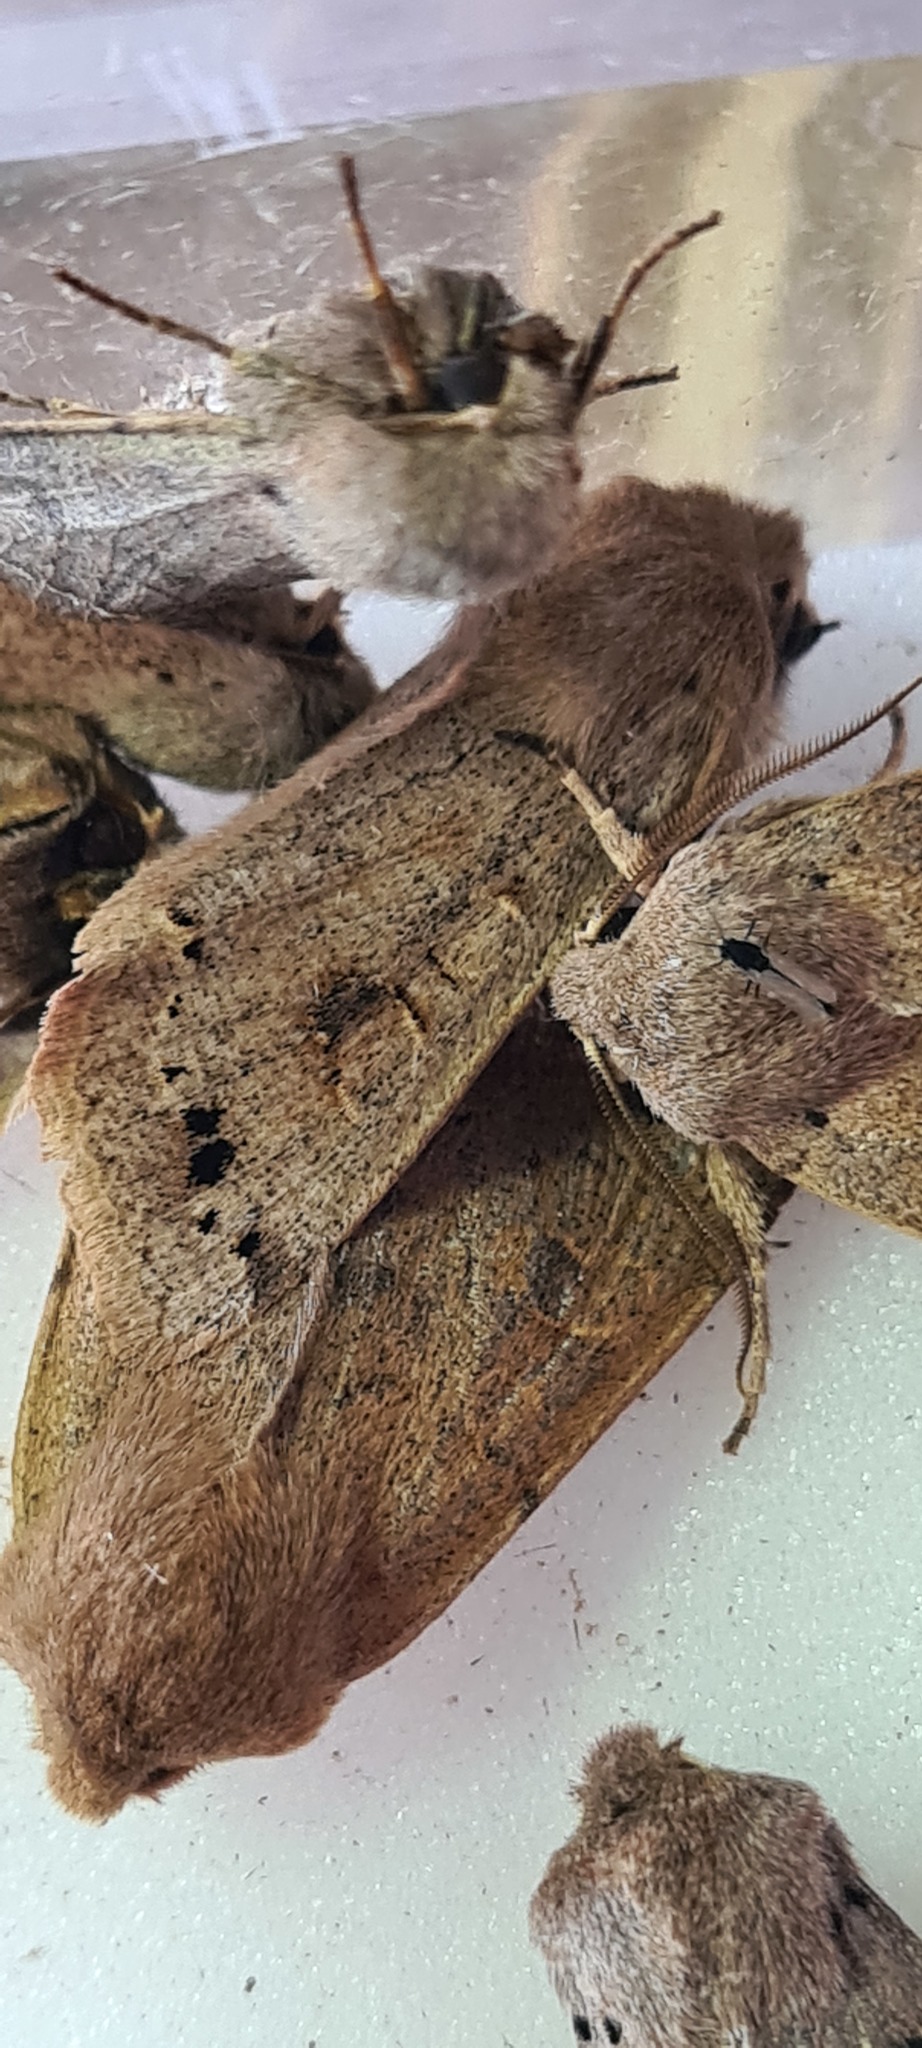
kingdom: Animalia
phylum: Arthropoda
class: Insecta
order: Lepidoptera
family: Noctuidae
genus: Anorthoa
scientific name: Anorthoa munda
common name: Twin-spotted quaker
